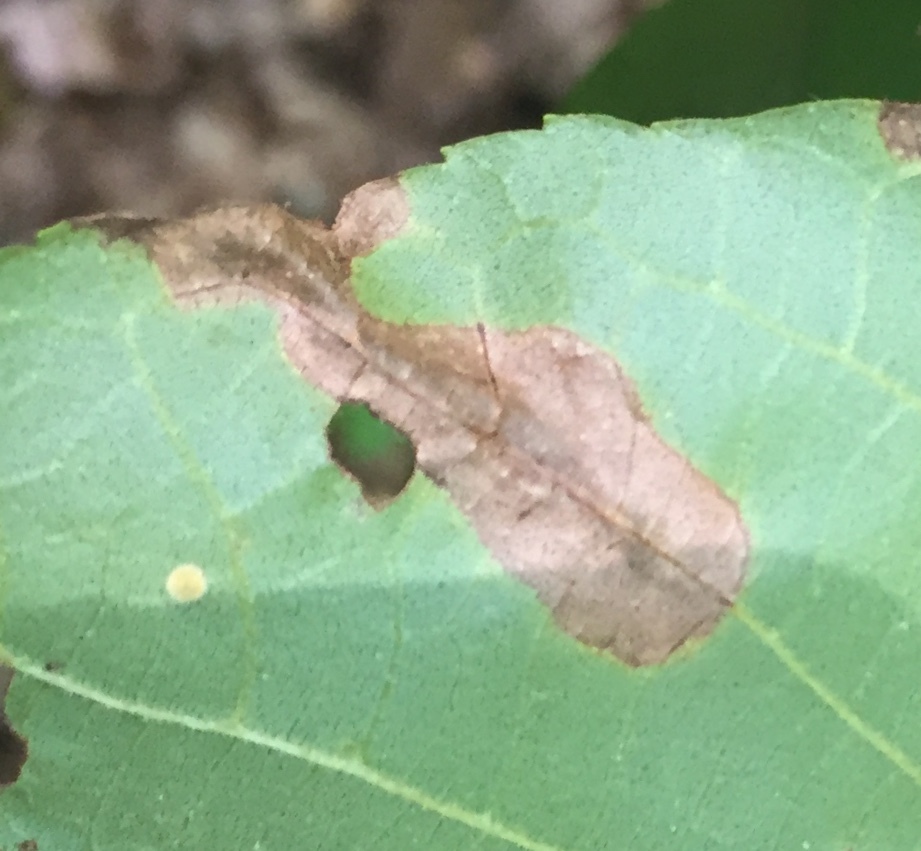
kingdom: Animalia
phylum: Arthropoda
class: Insecta
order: Lepidoptera
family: Gracillariidae
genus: Cameraria
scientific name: Cameraria caryaefoliella
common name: Pecan leafminer moth
